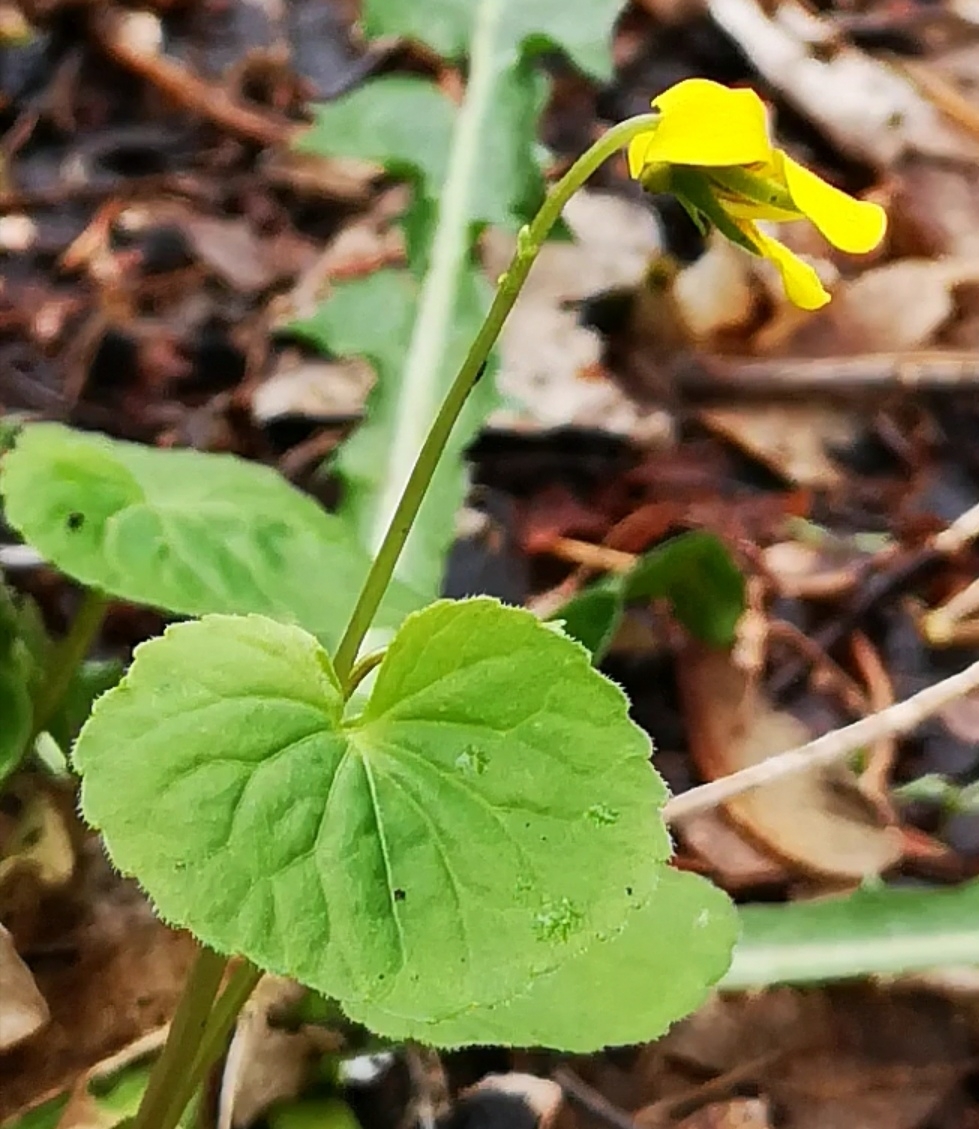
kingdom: Plantae
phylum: Tracheophyta
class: Magnoliopsida
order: Malpighiales
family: Violaceae
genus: Viola
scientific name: Viola biflora
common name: Alpine yellow violet
